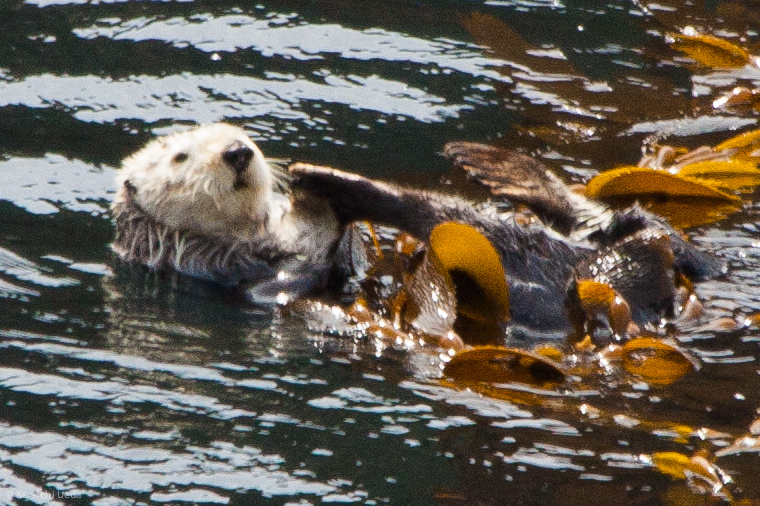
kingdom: Animalia
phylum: Chordata
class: Mammalia
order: Carnivora
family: Mustelidae
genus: Enhydra
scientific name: Enhydra lutris
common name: Sea otter
